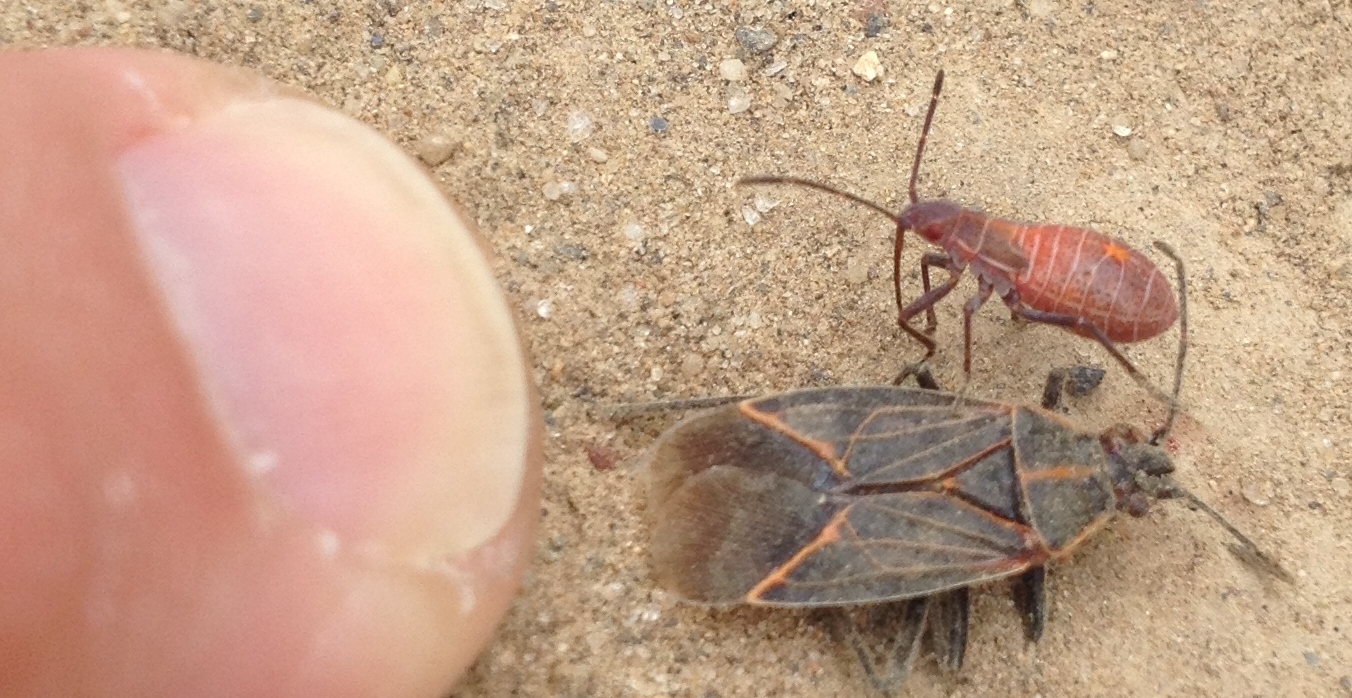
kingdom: Animalia
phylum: Arthropoda
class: Insecta
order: Hemiptera
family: Rhopalidae
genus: Boisea
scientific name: Boisea rubrolineata
